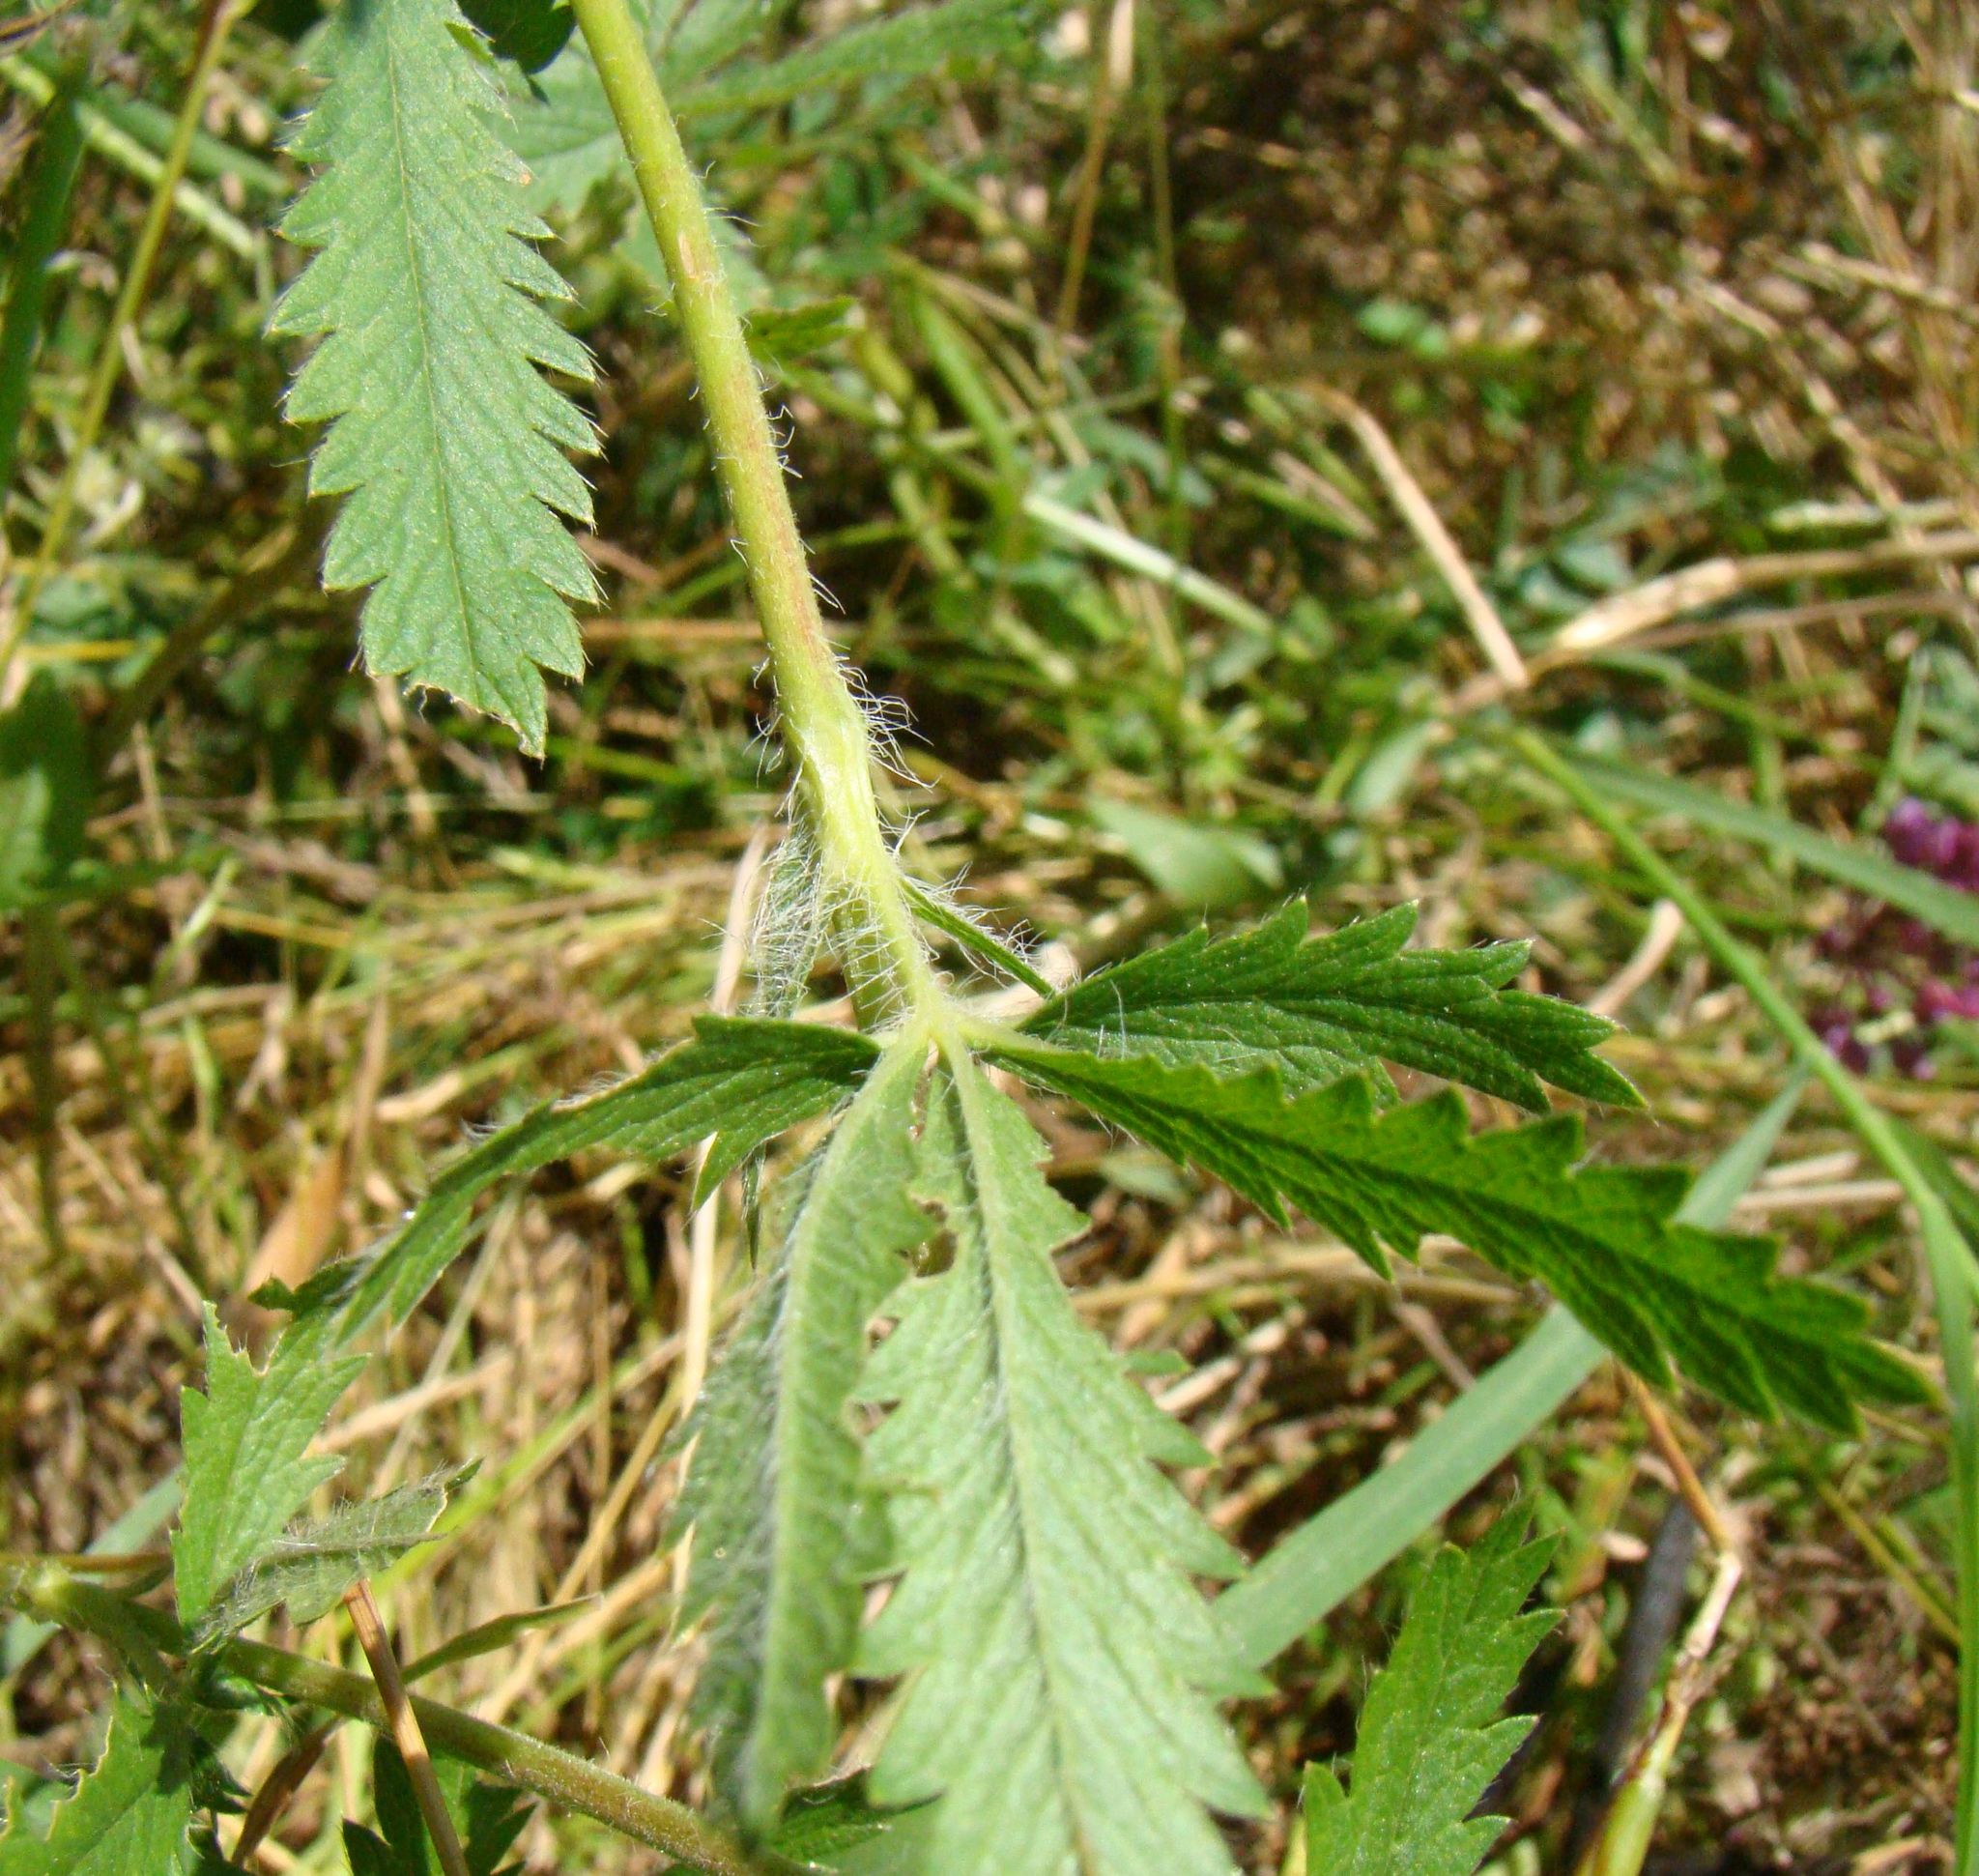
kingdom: Plantae
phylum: Tracheophyta
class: Magnoliopsida
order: Rosales
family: Rosaceae
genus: Potentilla
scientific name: Potentilla recta
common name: Sulphur cinquefoil
